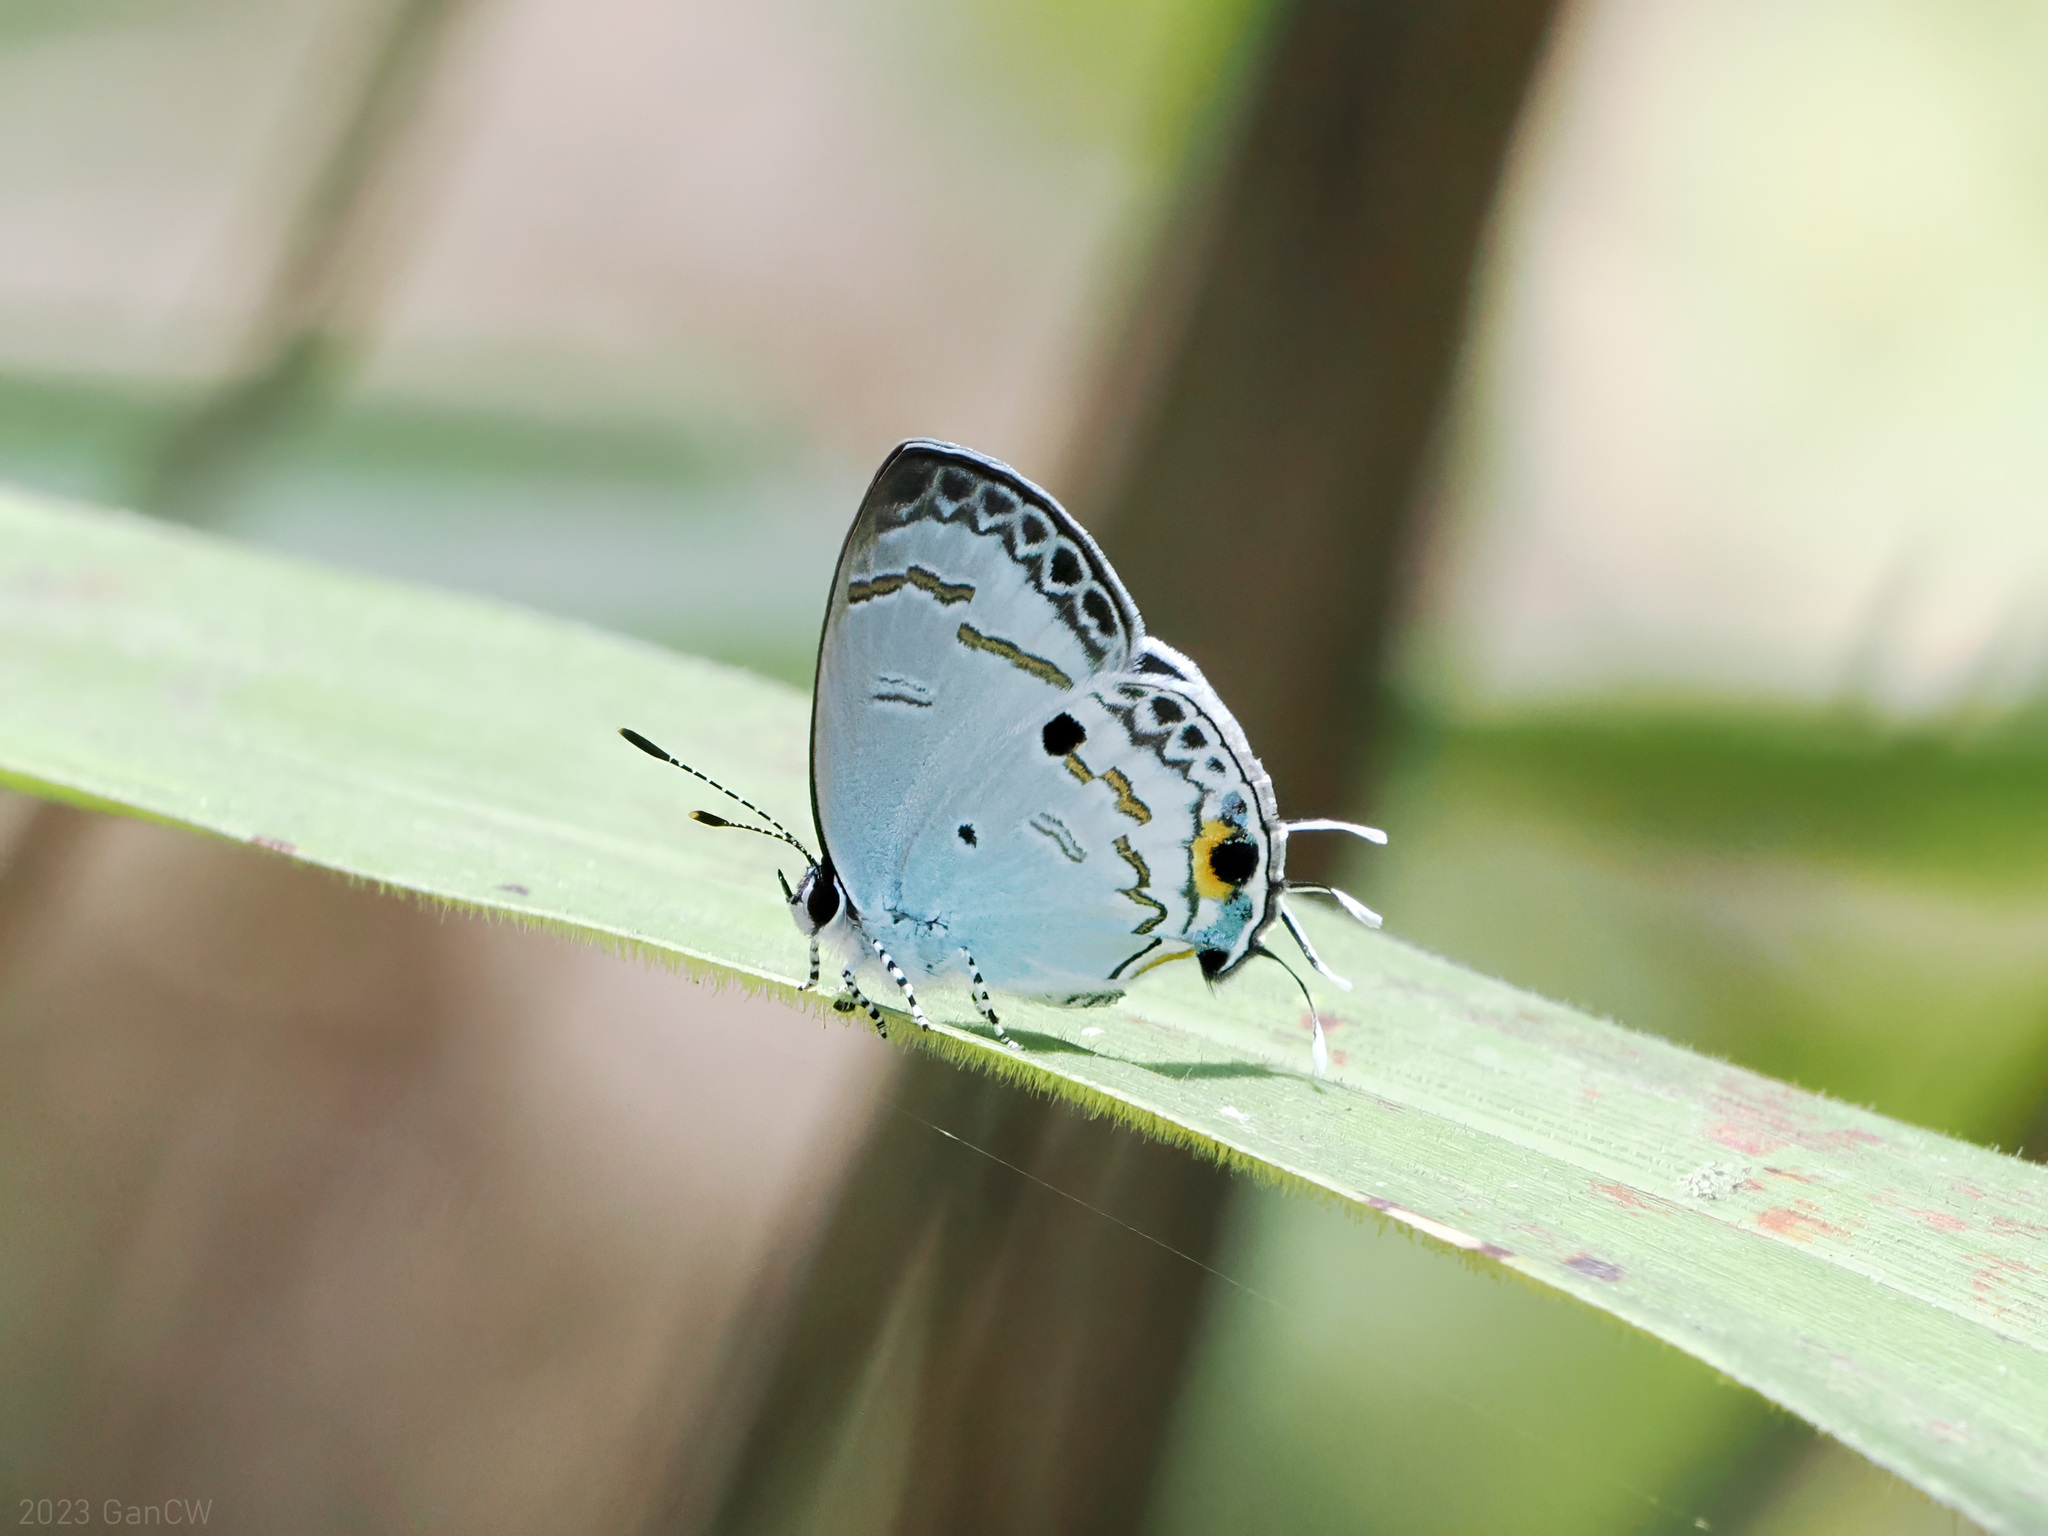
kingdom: Animalia
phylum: Arthropoda
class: Insecta
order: Lepidoptera
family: Lycaenidae
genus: Hypolycaena
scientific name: Hypolycaena
